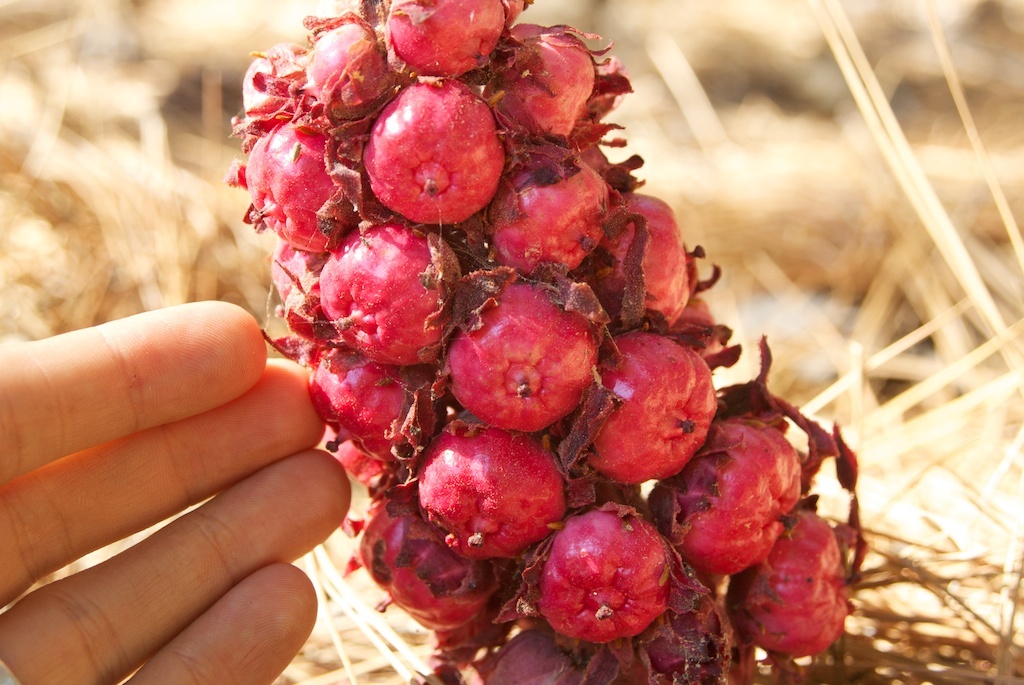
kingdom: Plantae
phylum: Tracheophyta
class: Magnoliopsida
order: Ericales
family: Ericaceae
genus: Sarcodes
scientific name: Sarcodes sanguinea
